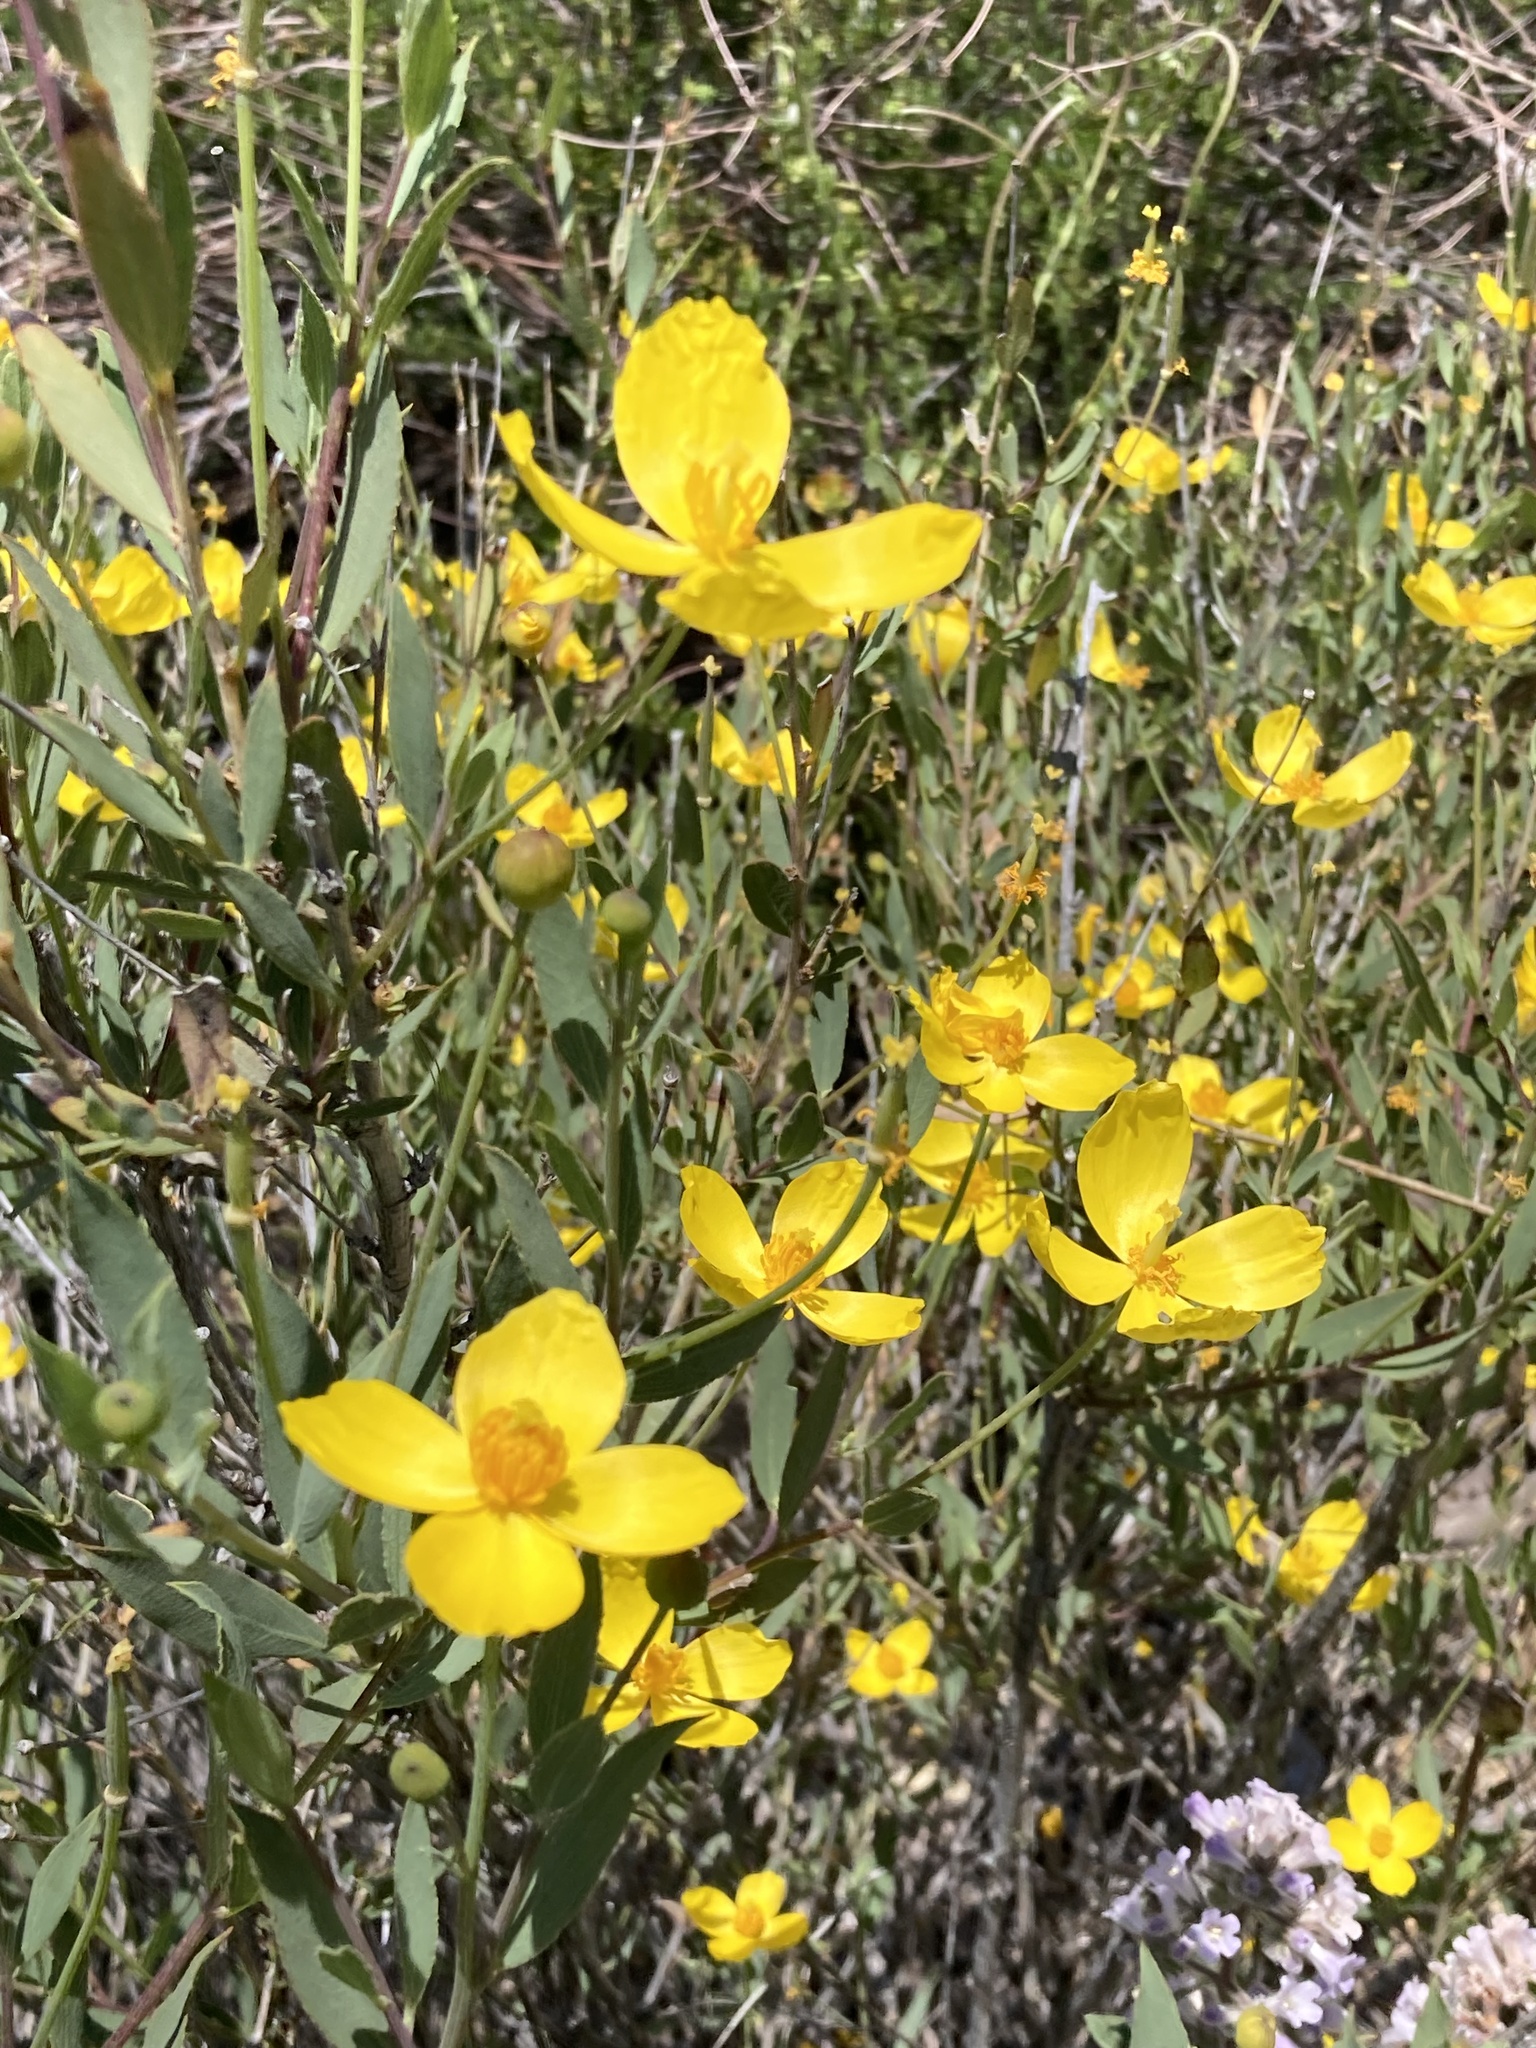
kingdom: Plantae
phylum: Tracheophyta
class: Magnoliopsida
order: Ranunculales
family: Papaveraceae
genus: Dendromecon
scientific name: Dendromecon rigida
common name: Tree poppy
